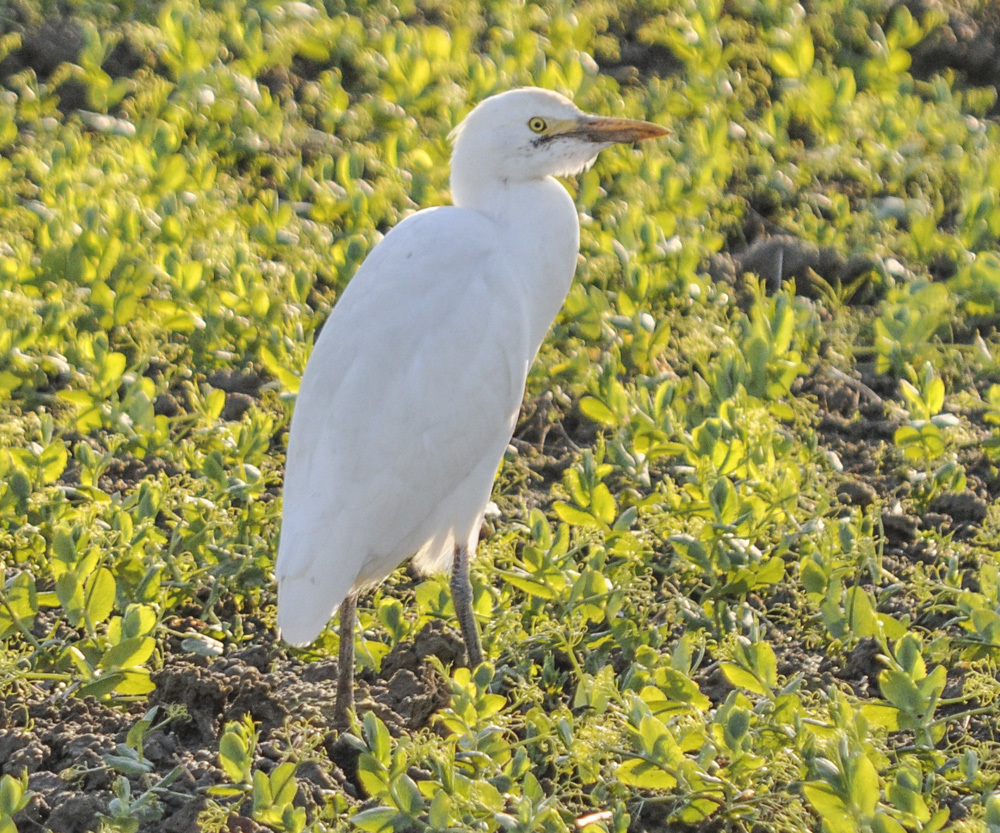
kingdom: Animalia
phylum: Chordata
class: Aves
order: Pelecaniformes
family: Ardeidae
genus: Bubulcus
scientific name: Bubulcus ibis
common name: Cattle egret
